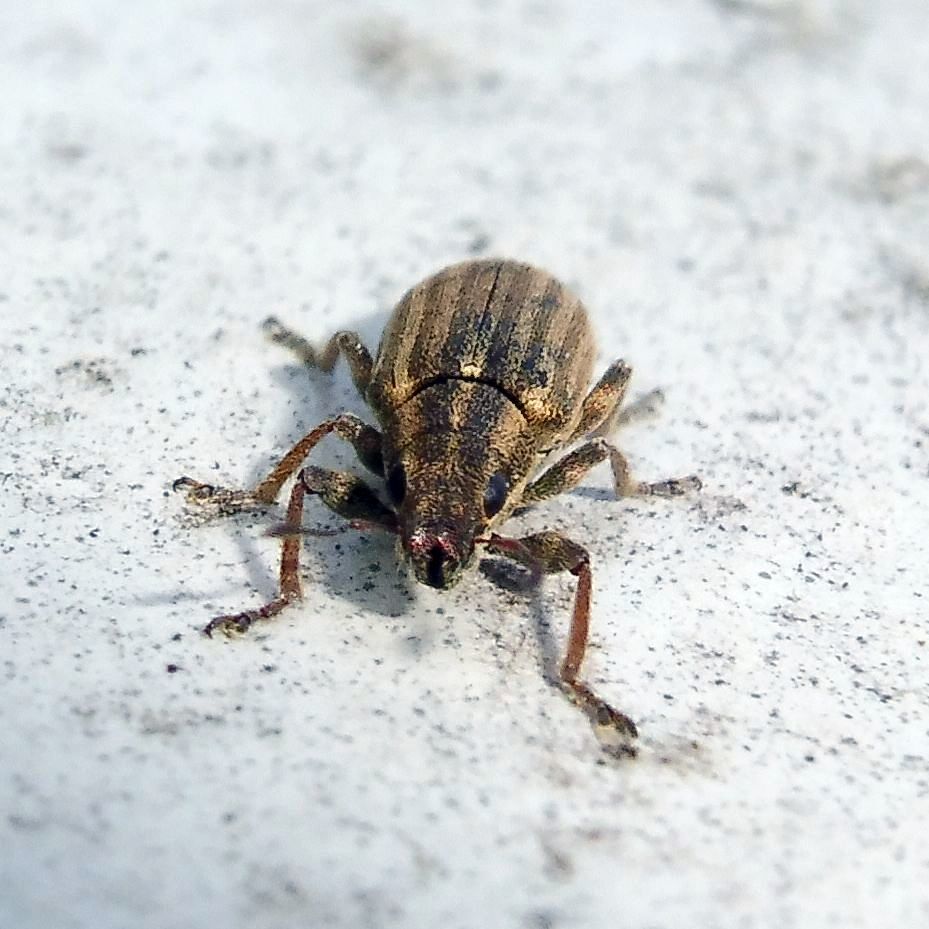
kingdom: Animalia
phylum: Arthropoda
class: Insecta
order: Coleoptera
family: Curculionidae
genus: Sitona
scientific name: Sitona lineatus
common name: Weevil
